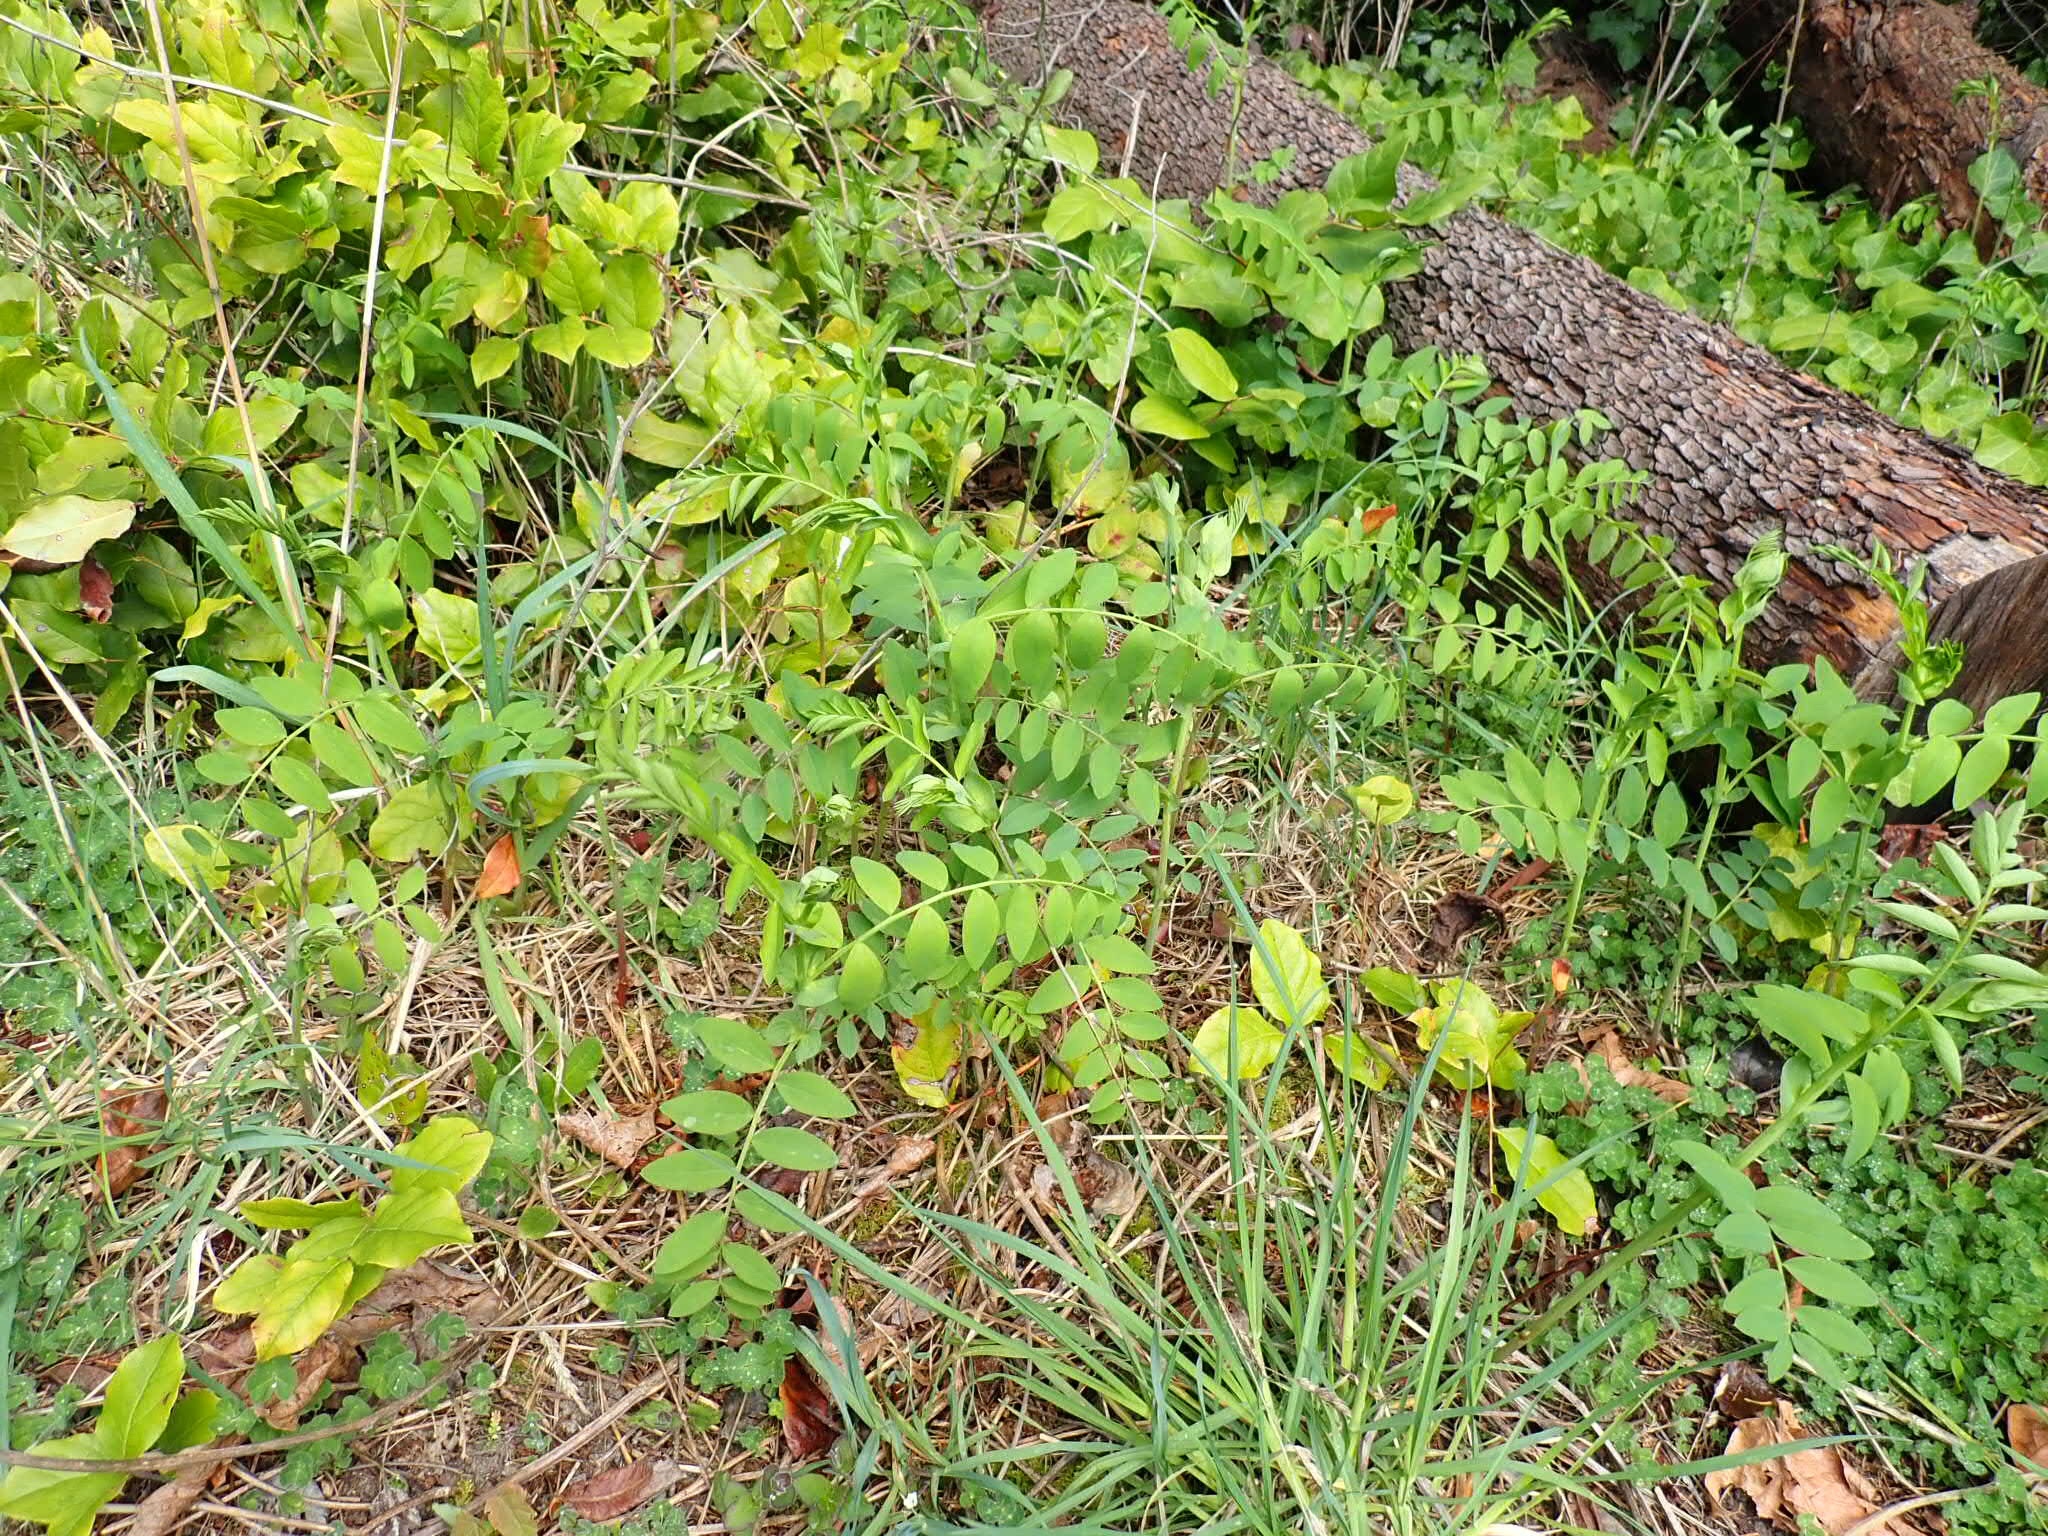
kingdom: Plantae
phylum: Tracheophyta
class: Magnoliopsida
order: Fabales
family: Fabaceae
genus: Lathyrus
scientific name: Lathyrus polyphyllus
